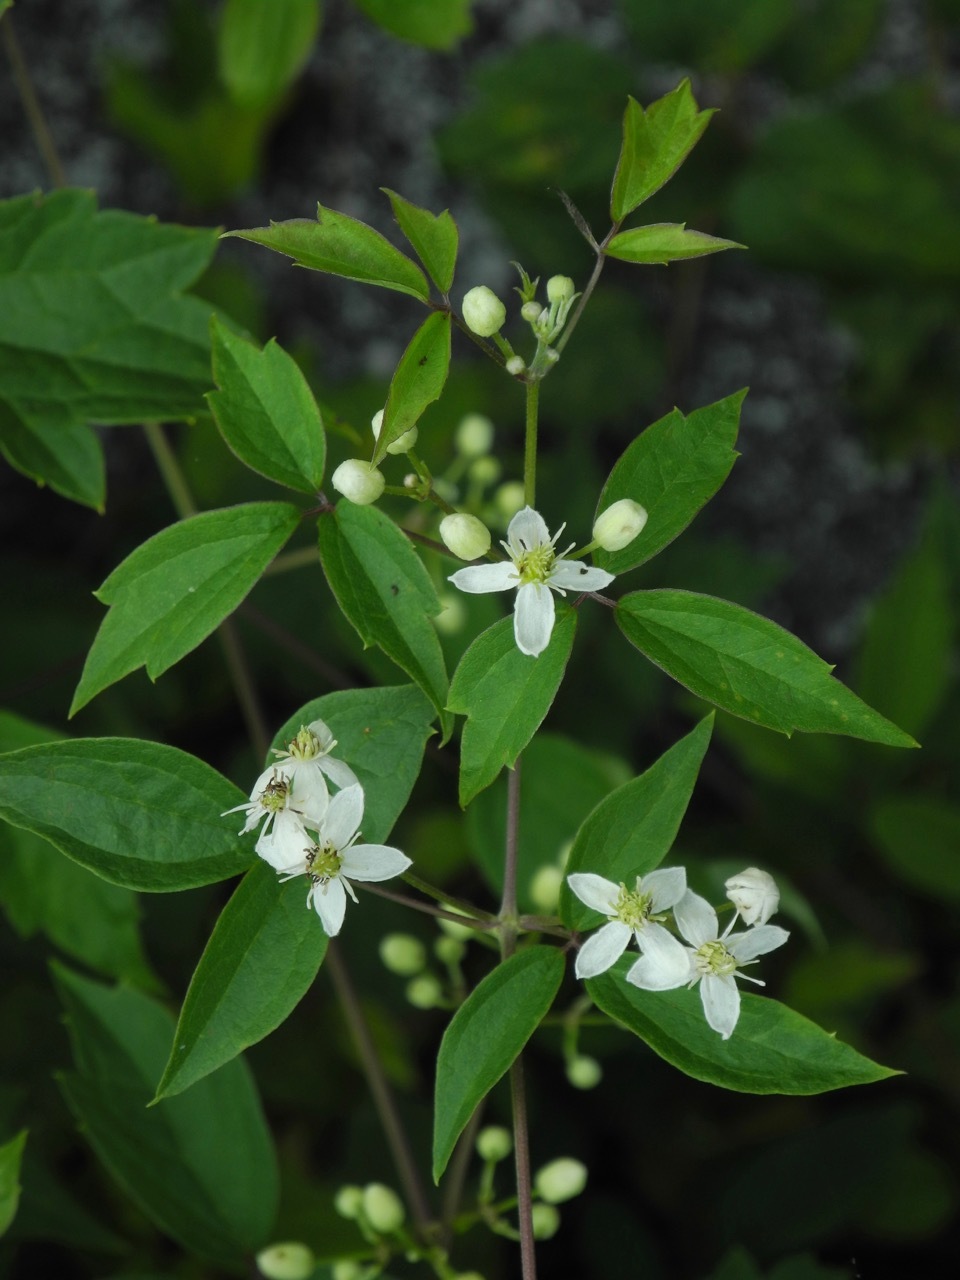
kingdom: Plantae
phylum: Tracheophyta
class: Magnoliopsida
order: Ranunculales
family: Ranunculaceae
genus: Clematis
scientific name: Clematis virginiana
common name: Virgin's-bower
